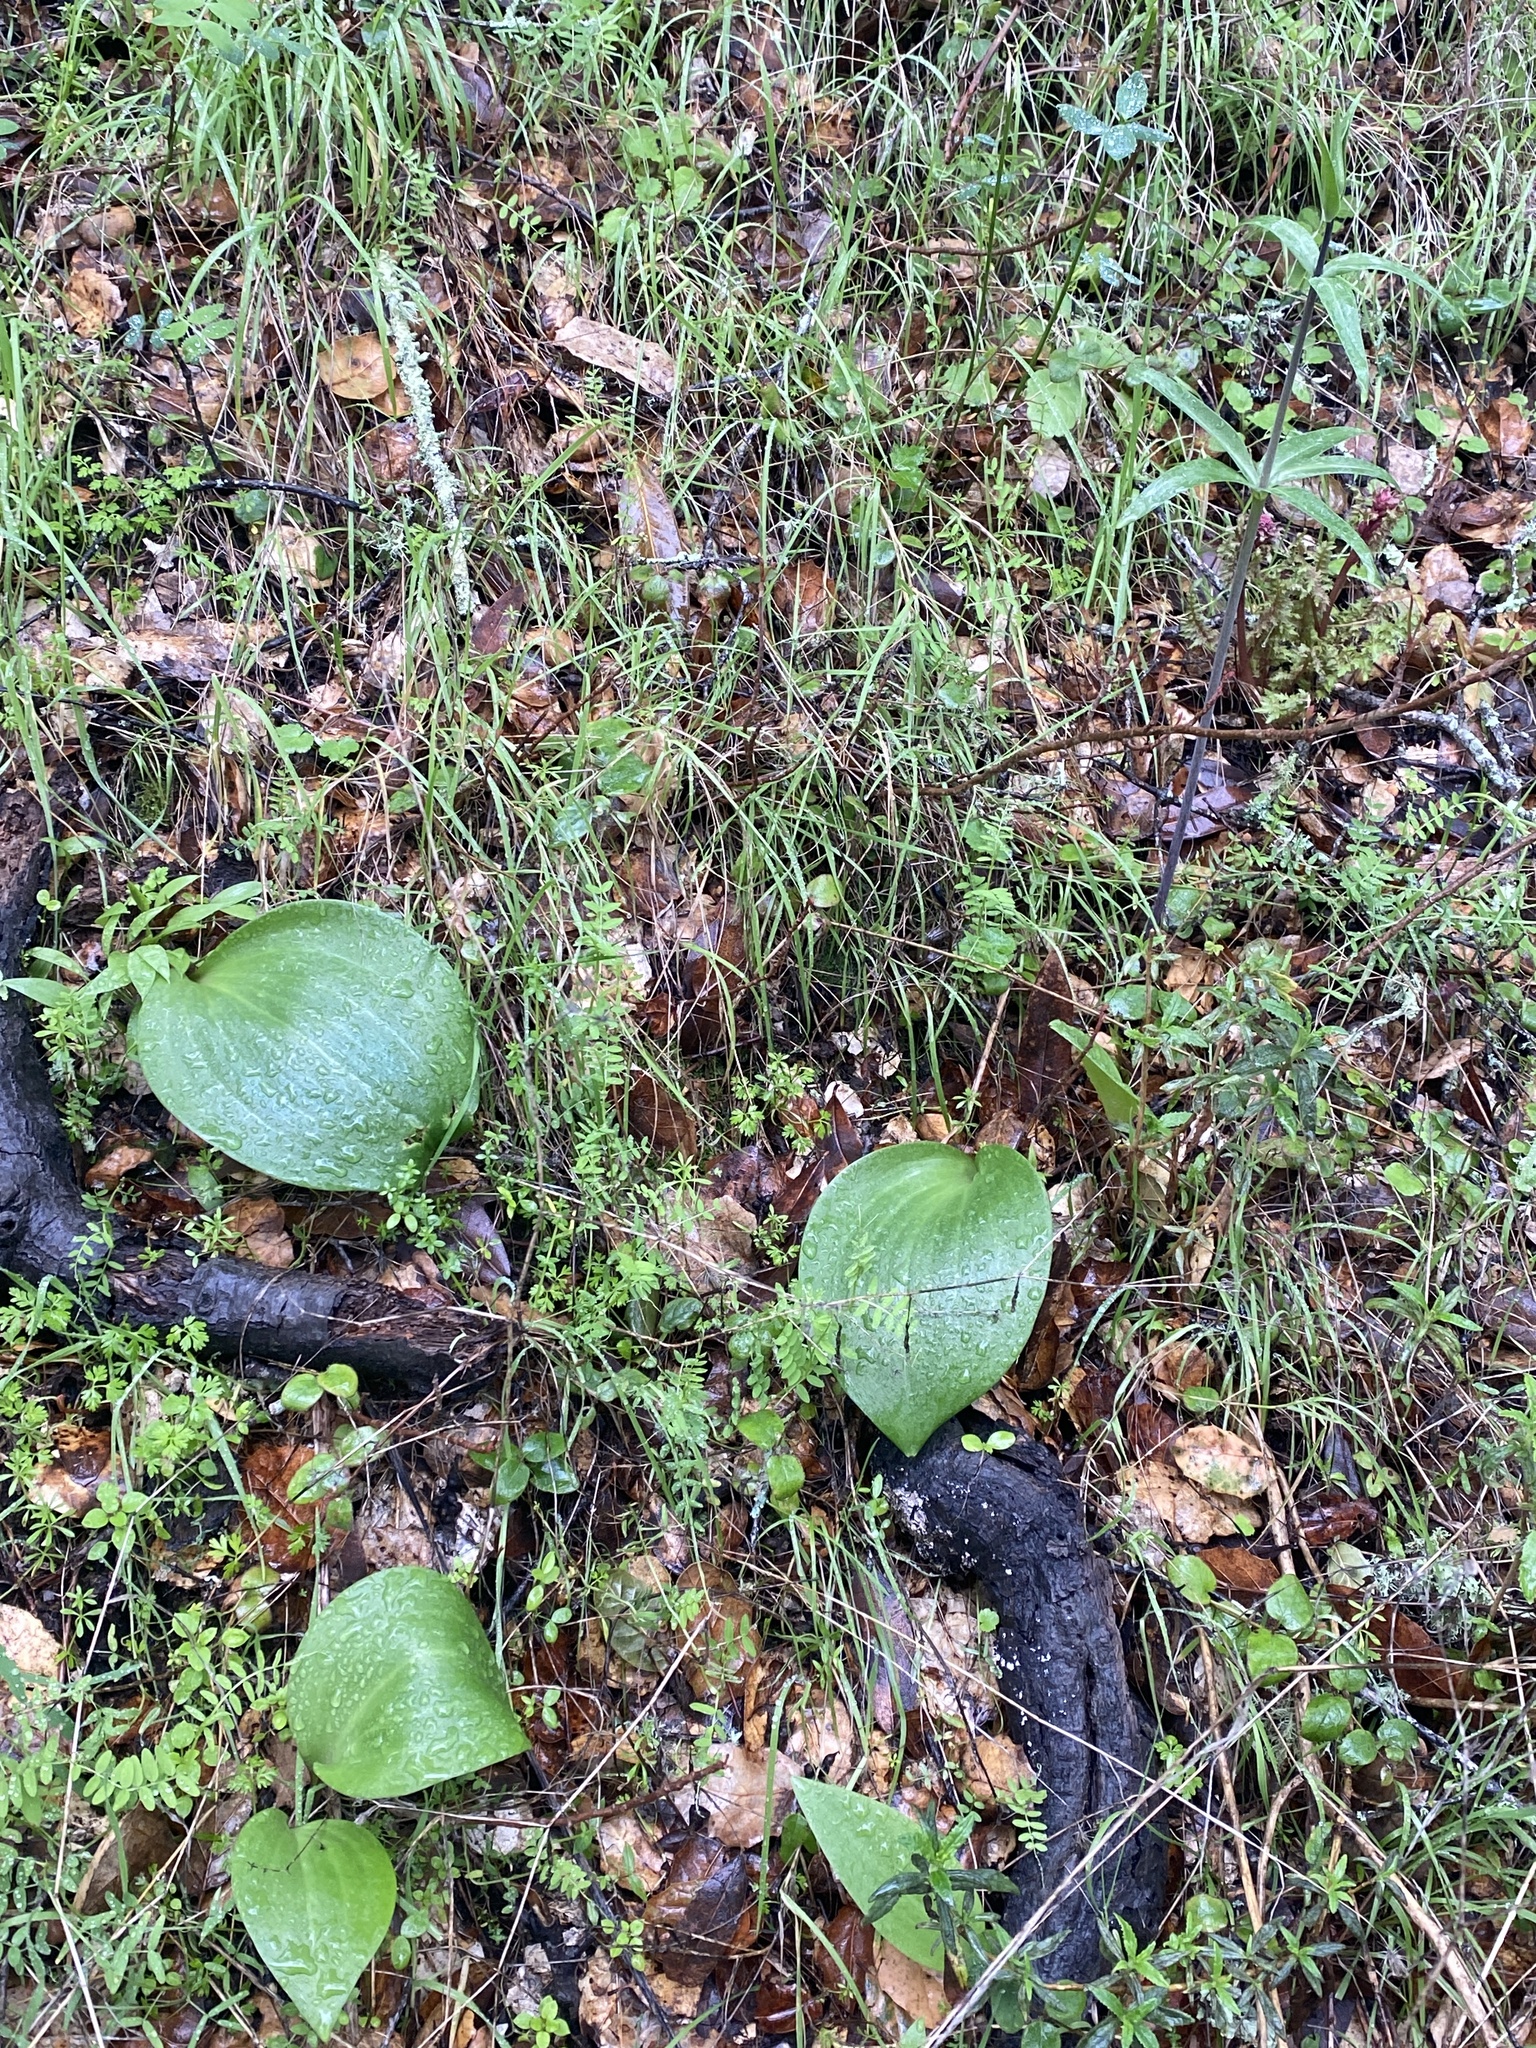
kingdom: Plantae
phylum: Tracheophyta
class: Liliopsida
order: Liliales
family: Liliaceae
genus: Fritillaria
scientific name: Fritillaria affinis
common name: Ojai fritillary
